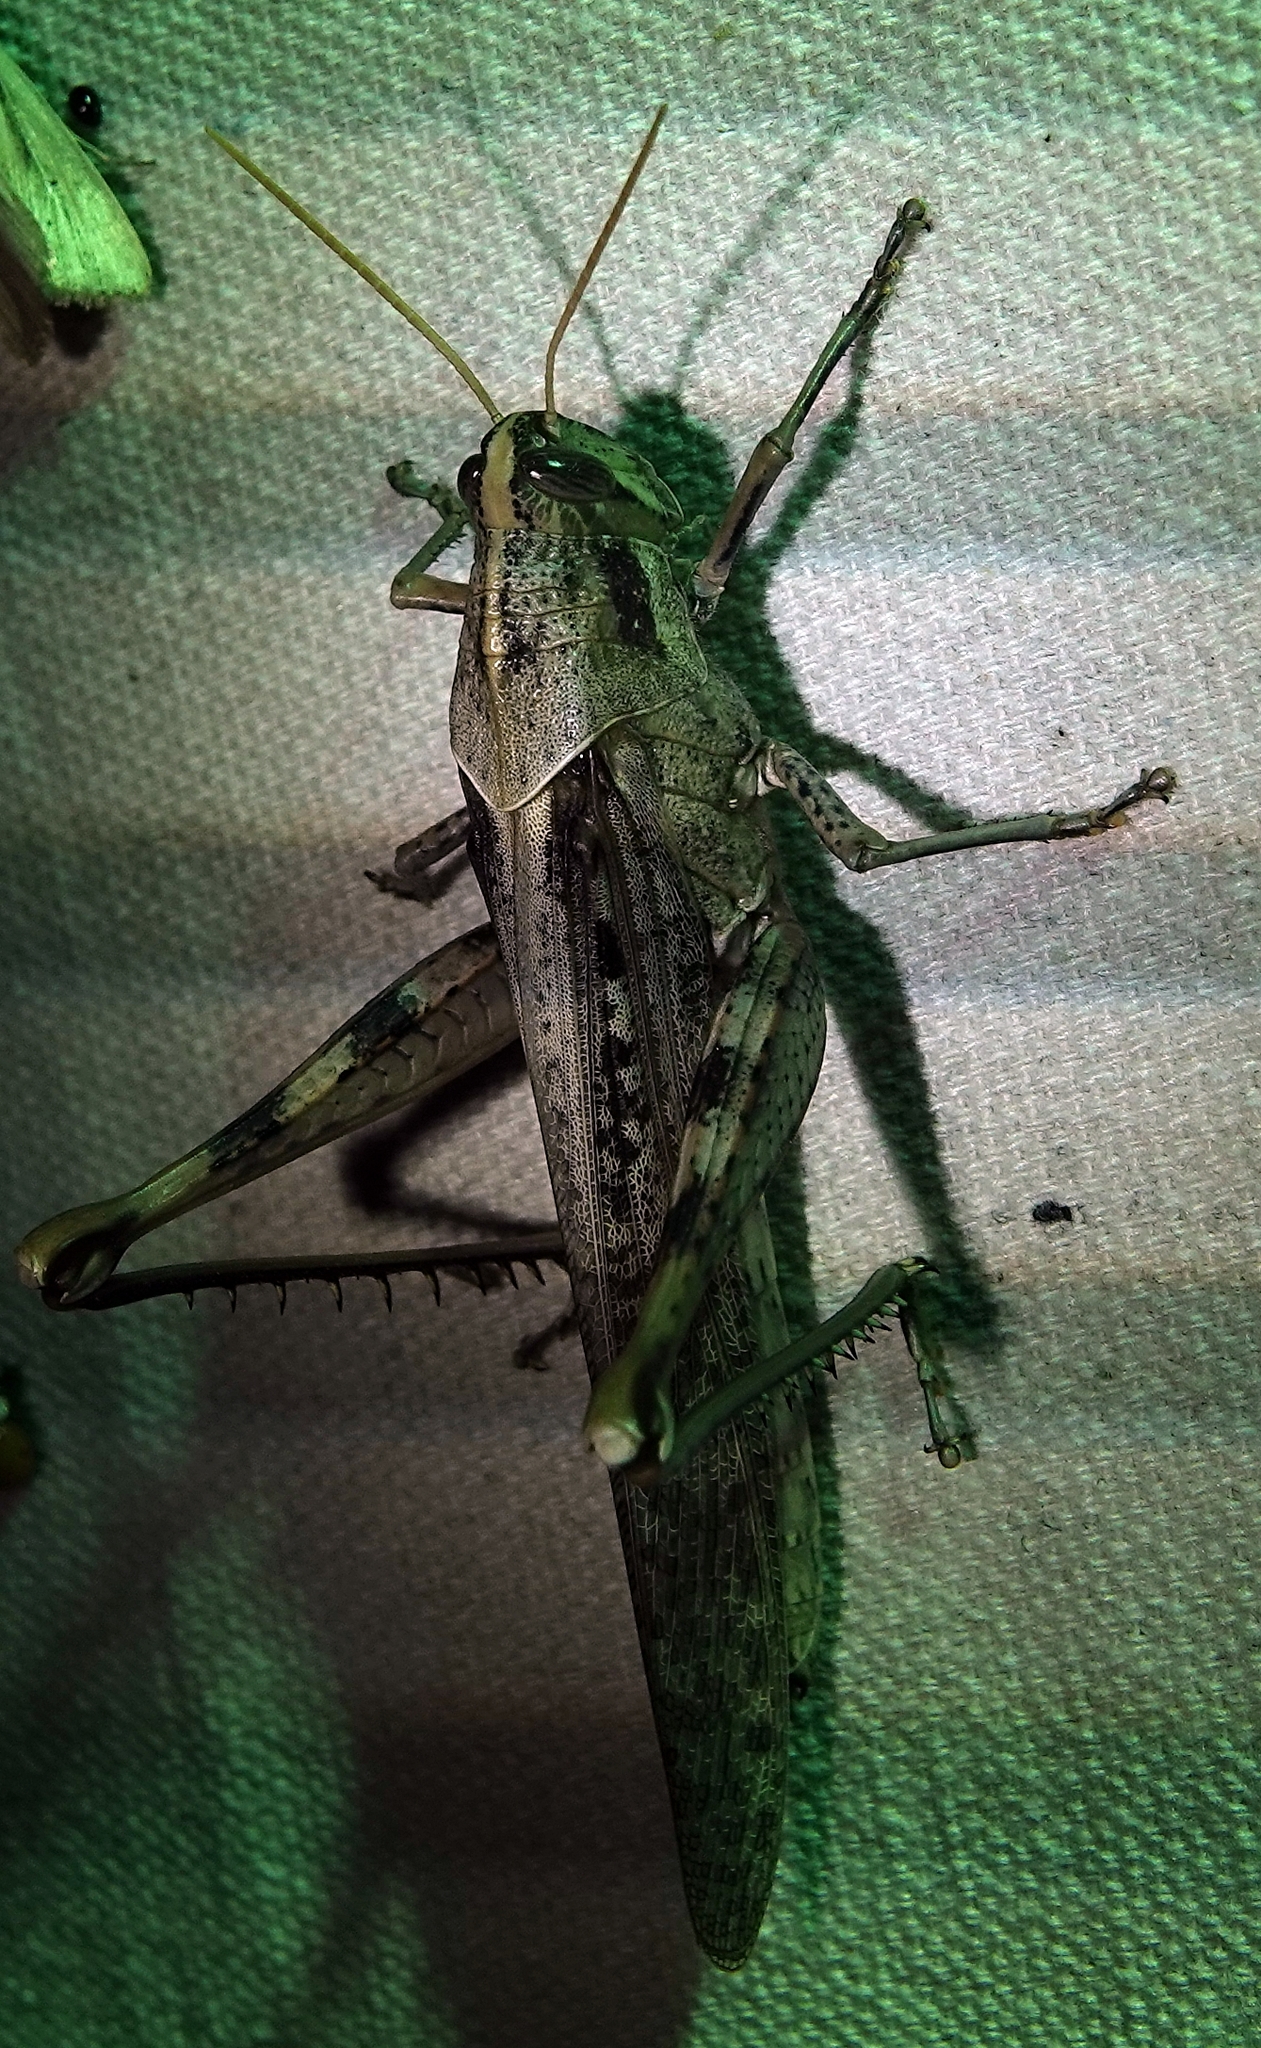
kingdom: Animalia
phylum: Arthropoda
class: Insecta
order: Orthoptera
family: Acrididae
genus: Schistocerca
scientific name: Schistocerca nitens
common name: Vagrant grasshopper
